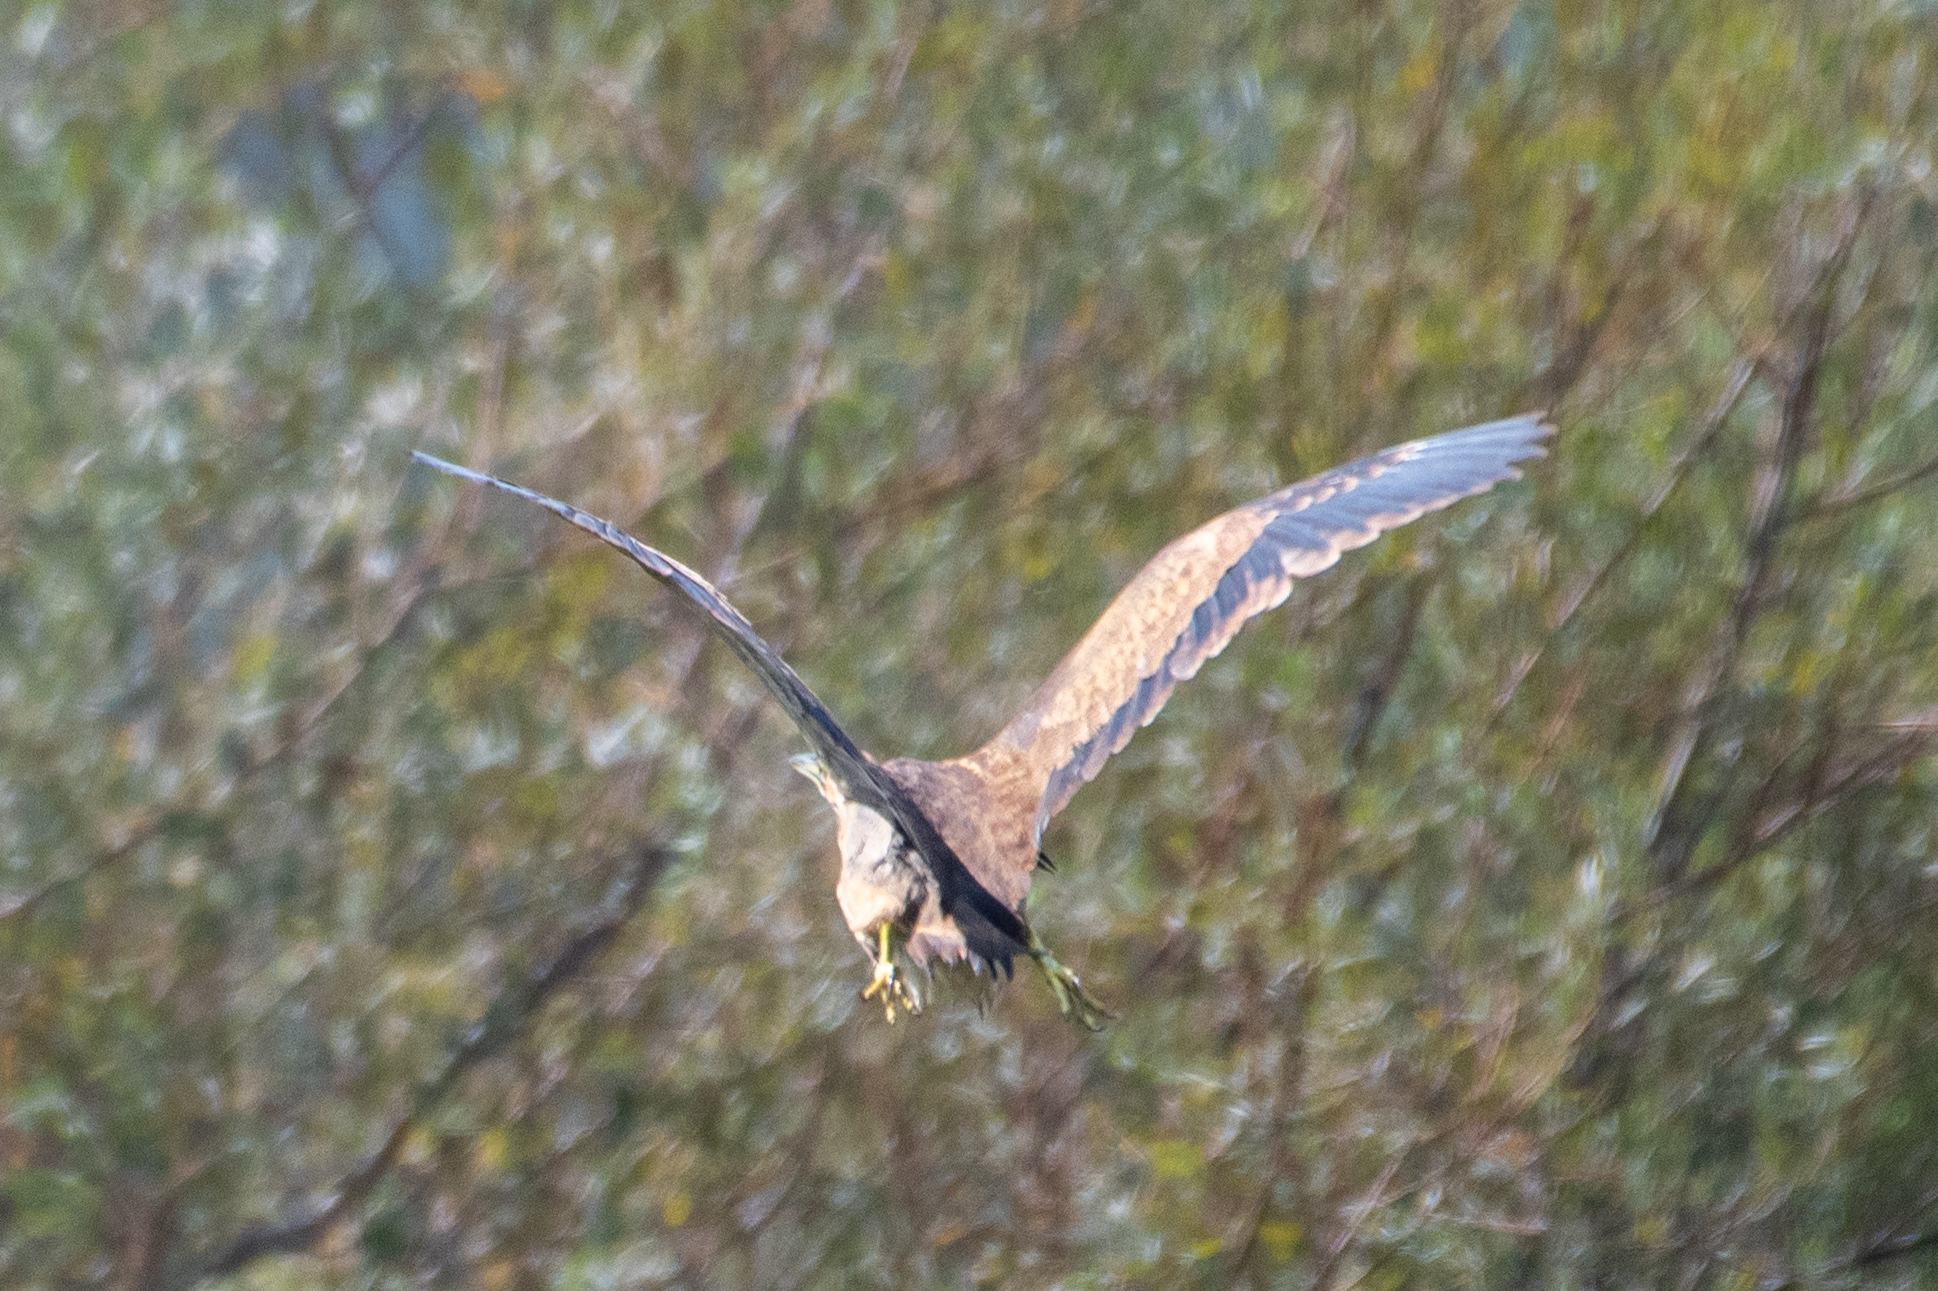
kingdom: Animalia
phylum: Chordata
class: Aves
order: Pelecaniformes
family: Ardeidae
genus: Botaurus
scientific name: Botaurus lentiginosus
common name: American bittern
